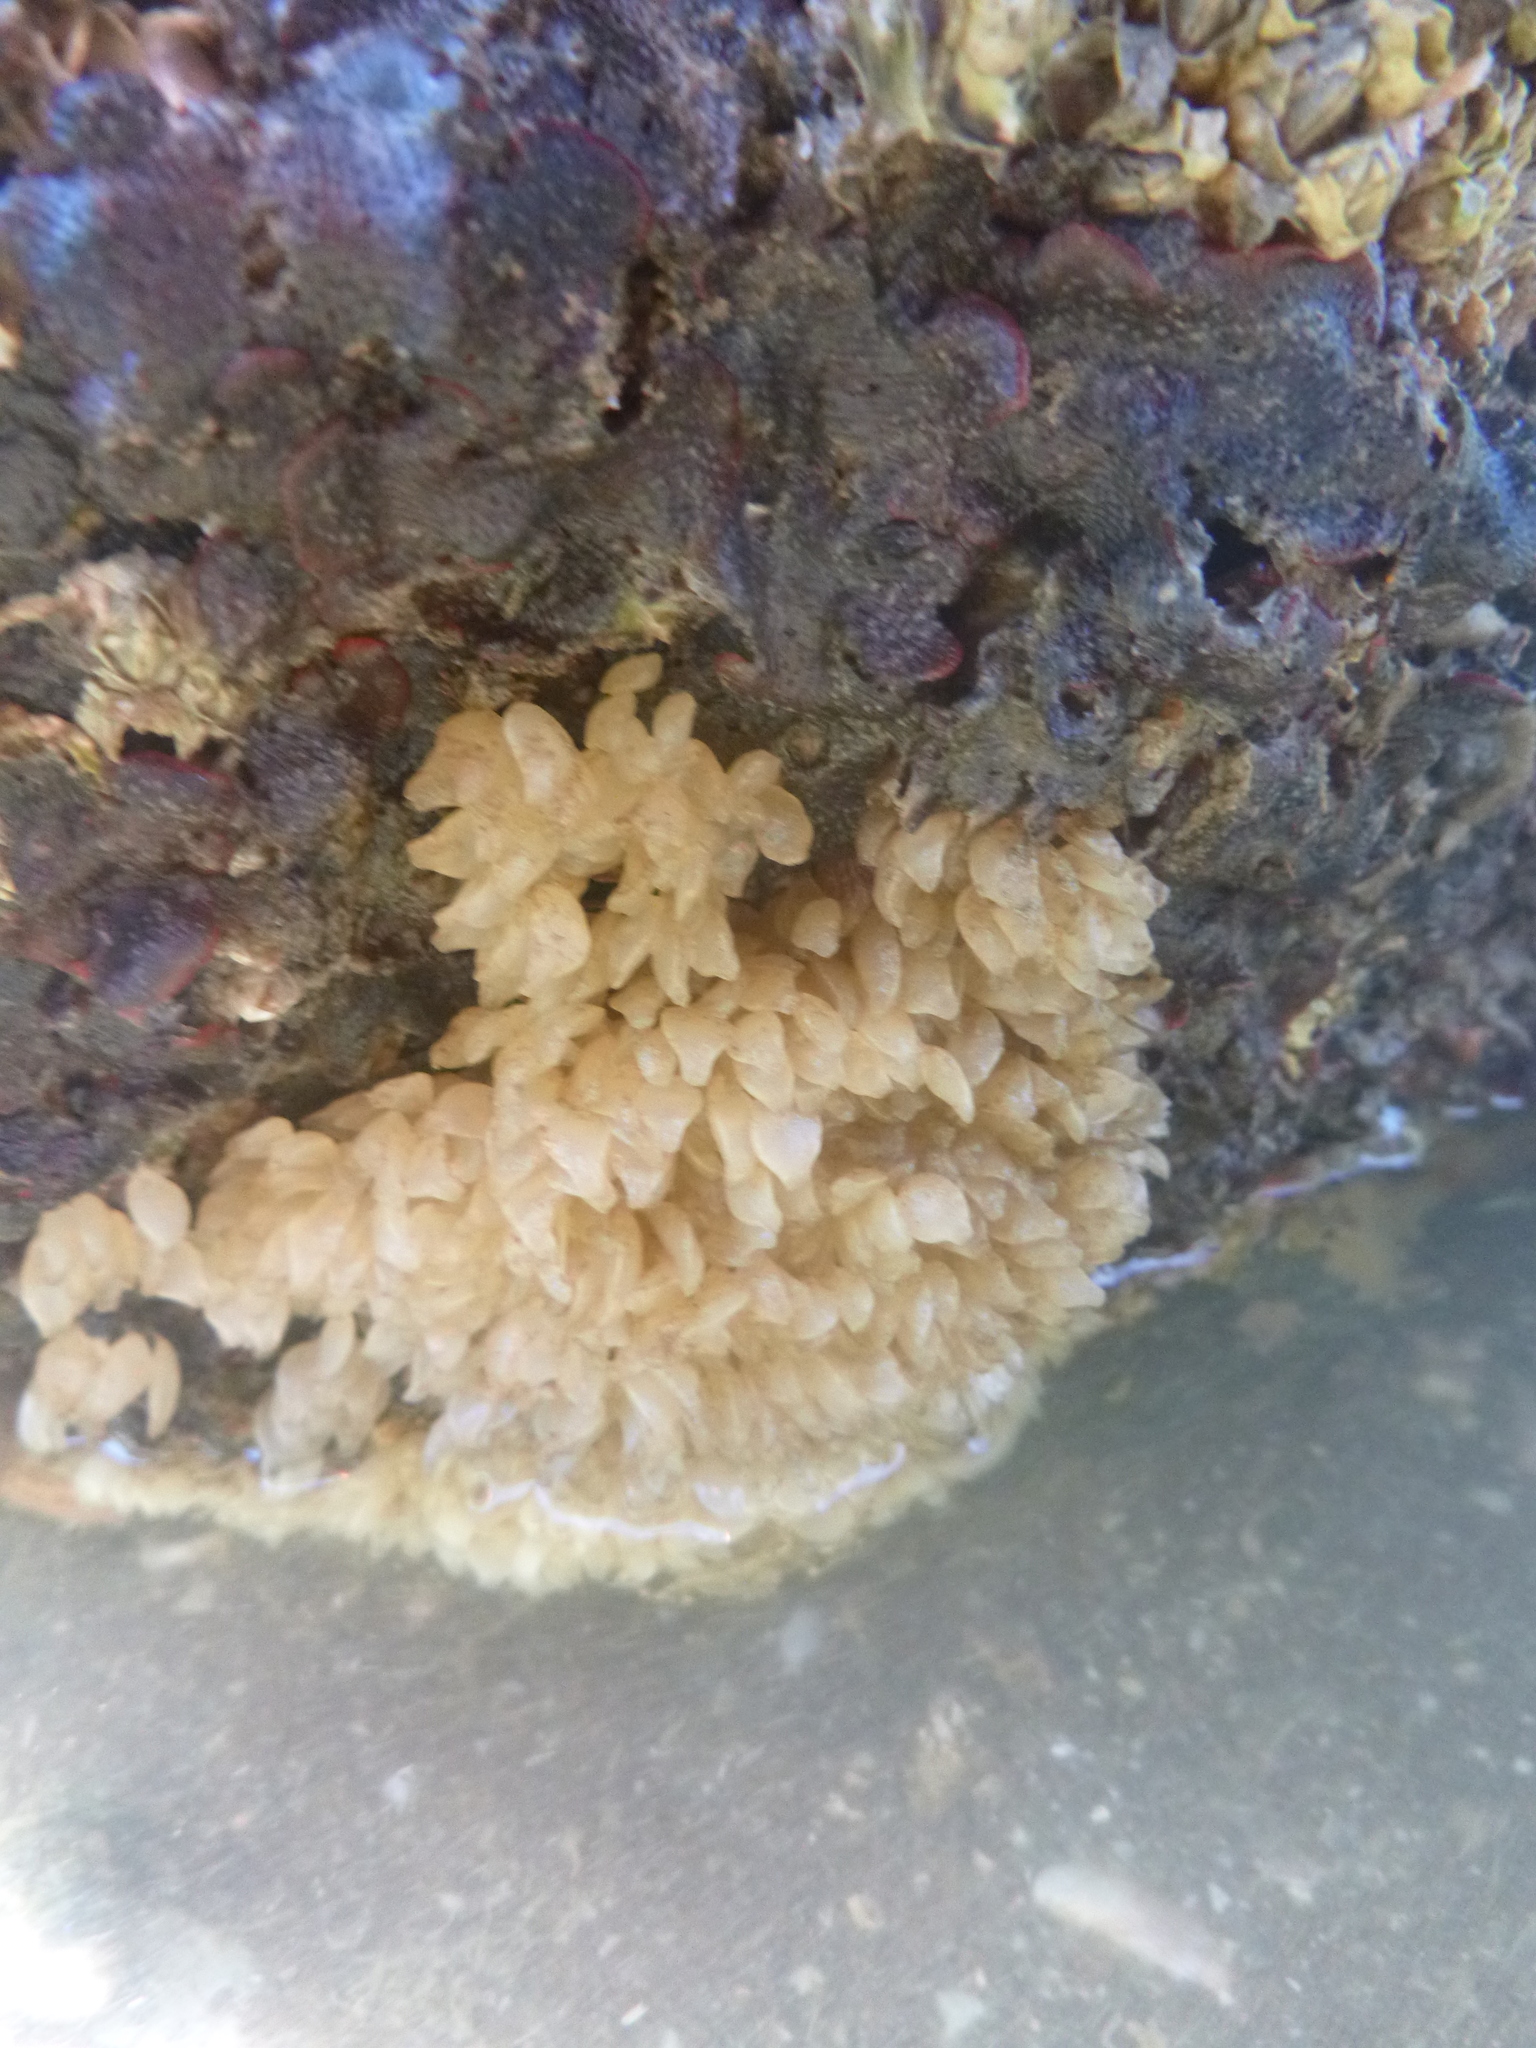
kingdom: Animalia
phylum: Mollusca
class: Gastropoda
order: Neogastropoda
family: Cominellidae
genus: Cominella
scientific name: Cominella maculosa
